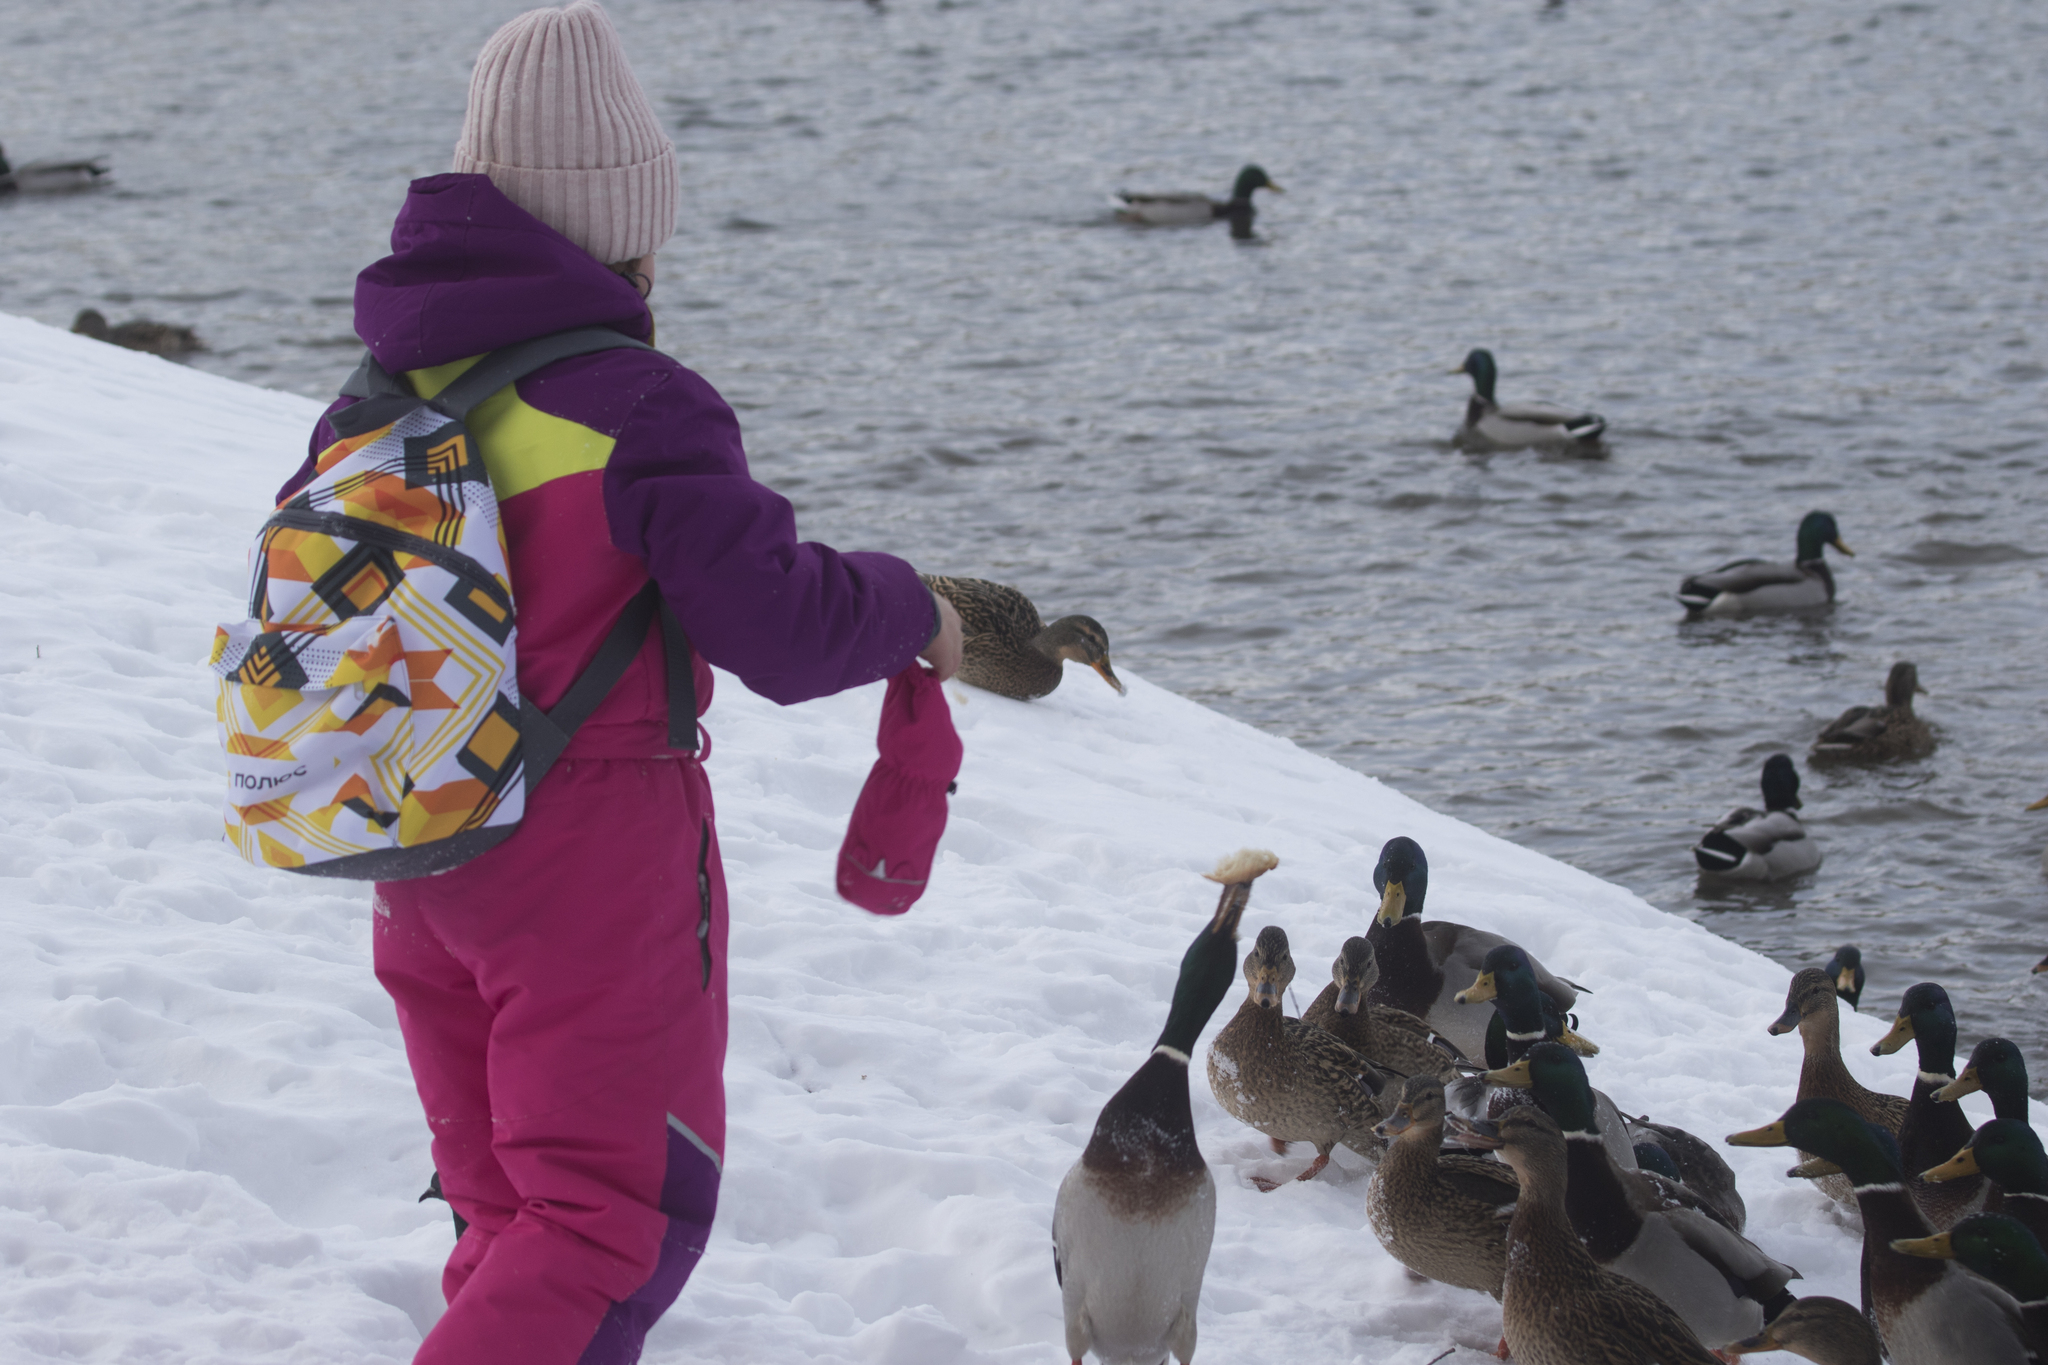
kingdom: Animalia
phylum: Chordata
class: Aves
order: Anseriformes
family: Anatidae
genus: Anas
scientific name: Anas platyrhynchos
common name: Mallard
